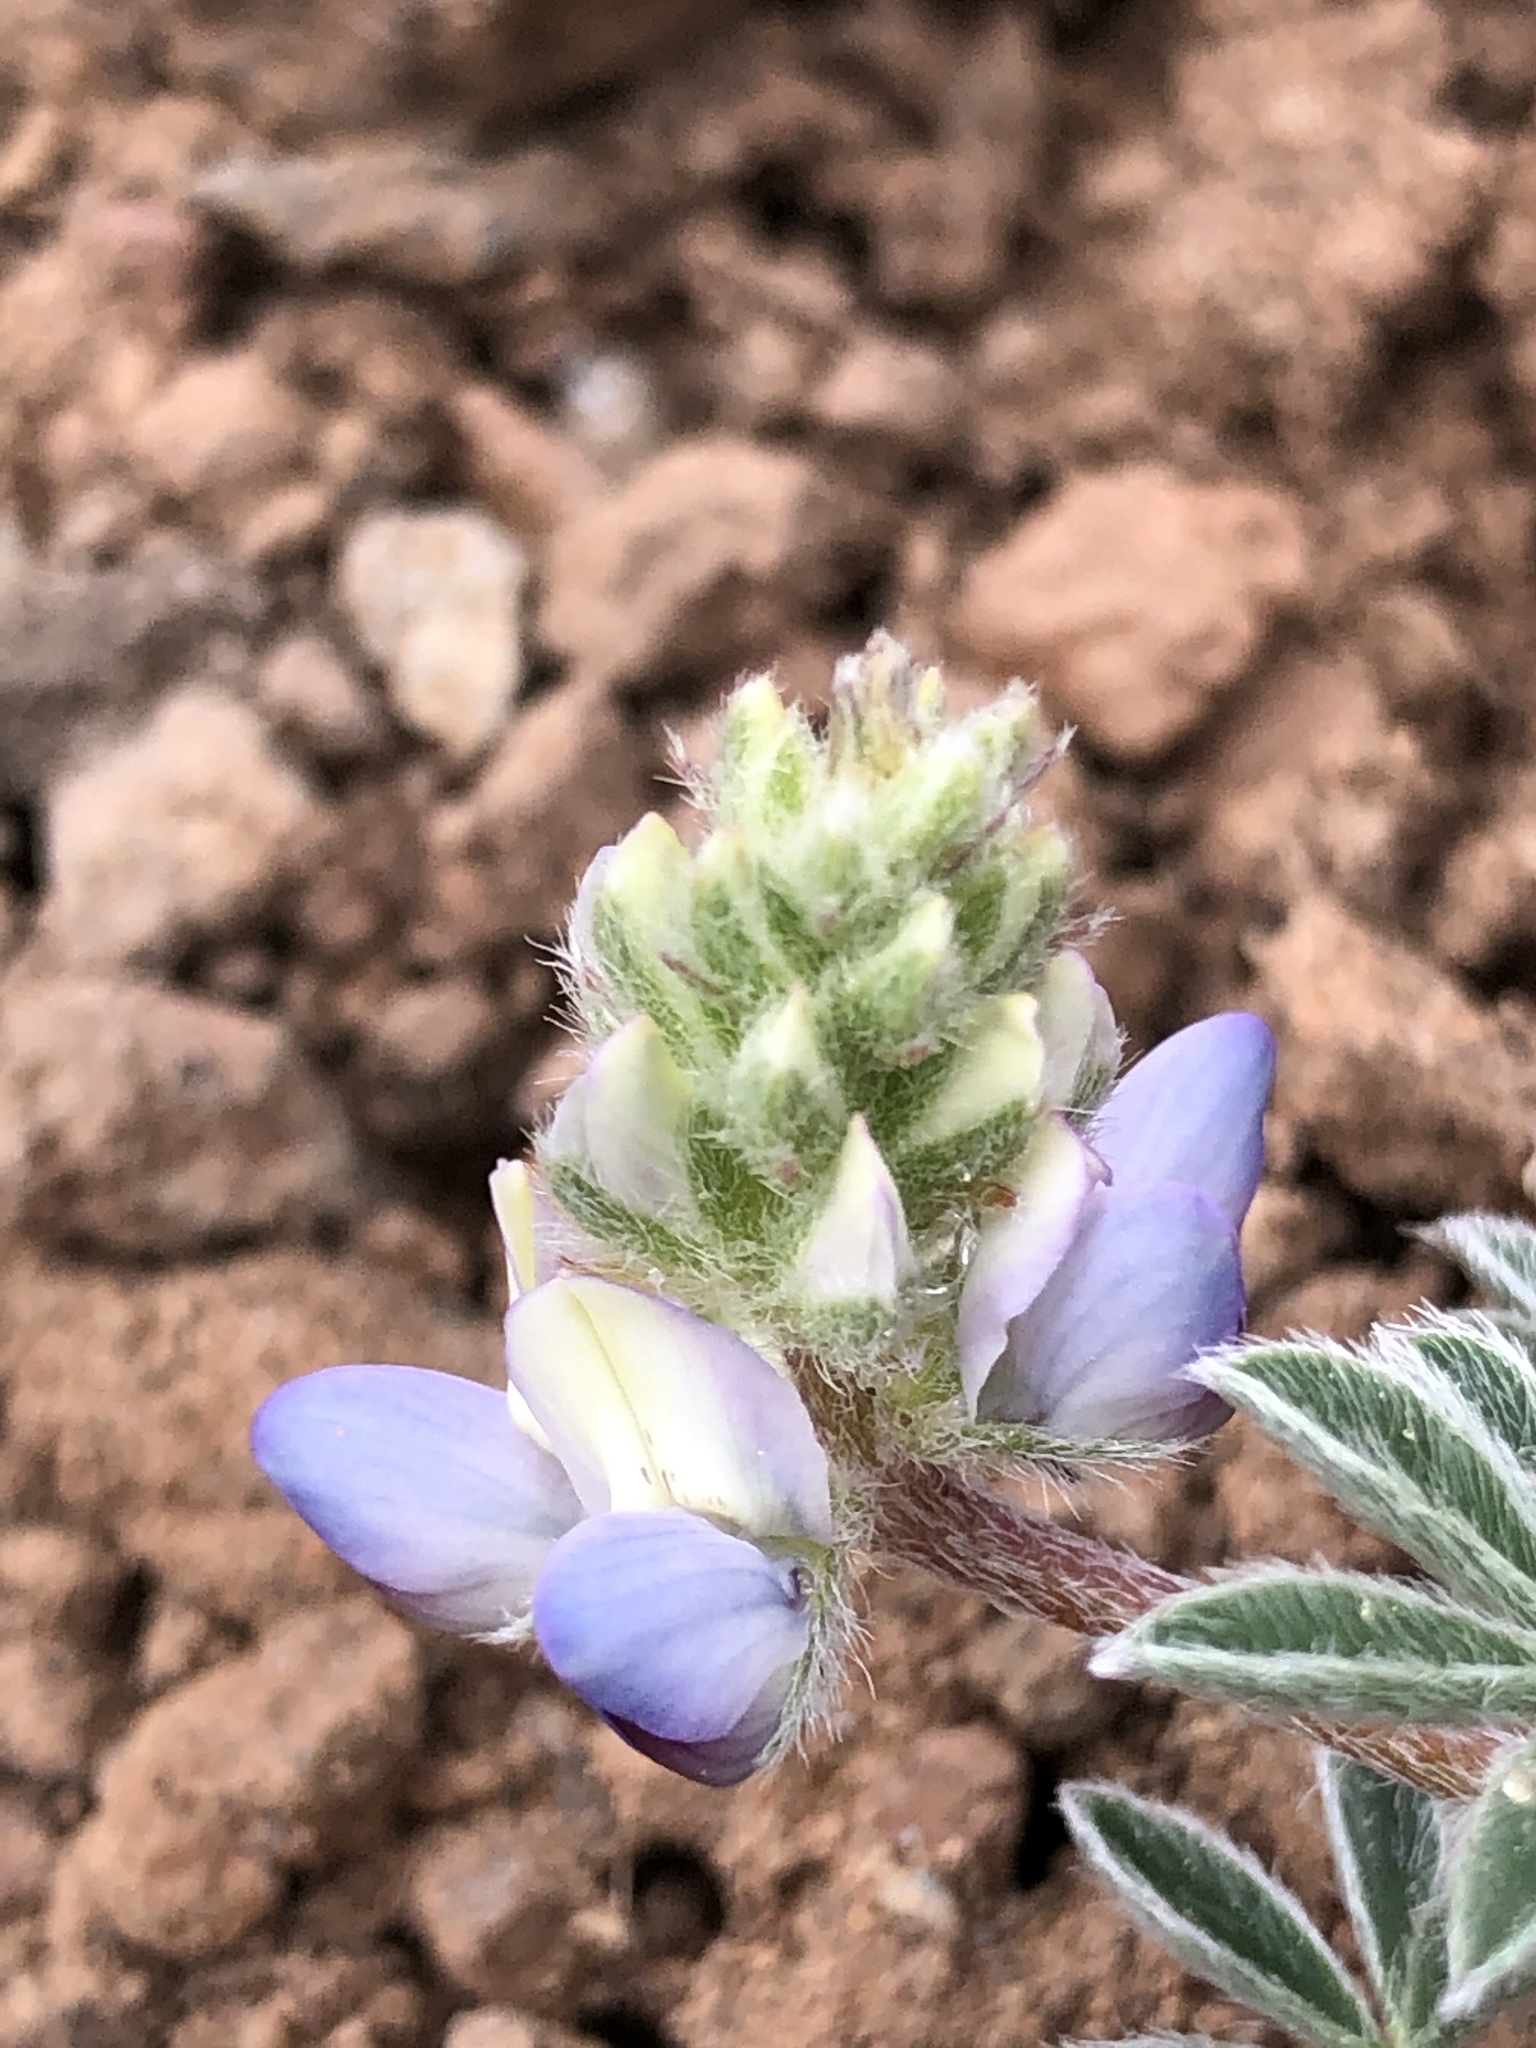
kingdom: Plantae
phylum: Tracheophyta
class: Magnoliopsida
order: Fabales
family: Fabaceae
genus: Lupinus
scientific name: Lupinus lepidus
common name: Prairie lupine
